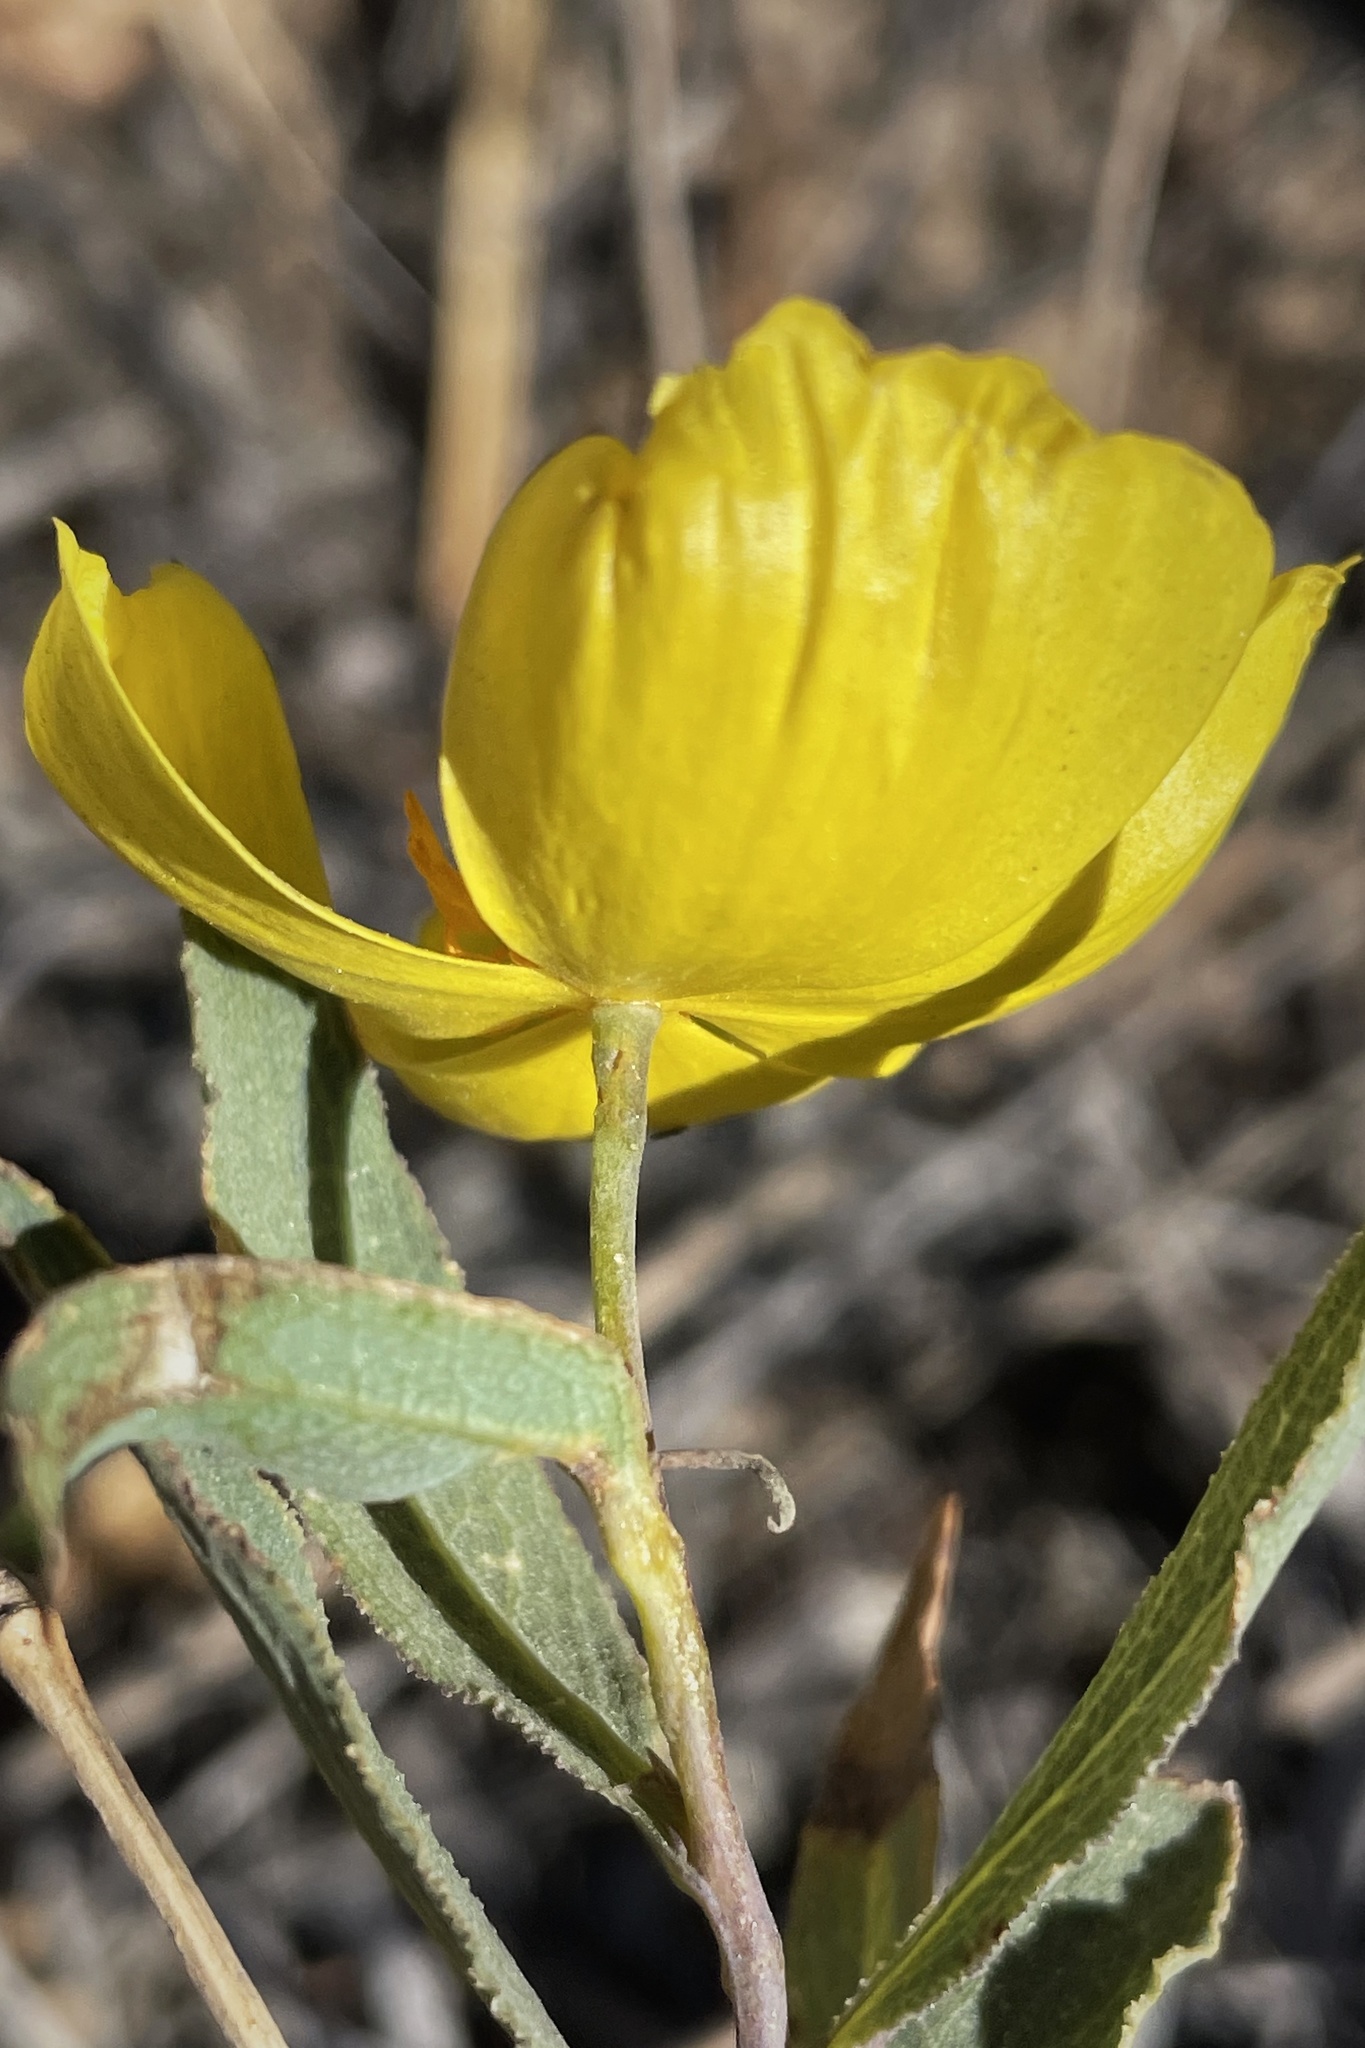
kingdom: Plantae
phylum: Tracheophyta
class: Magnoliopsida
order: Ranunculales
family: Papaveraceae
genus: Dendromecon
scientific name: Dendromecon rigida
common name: Tree poppy
